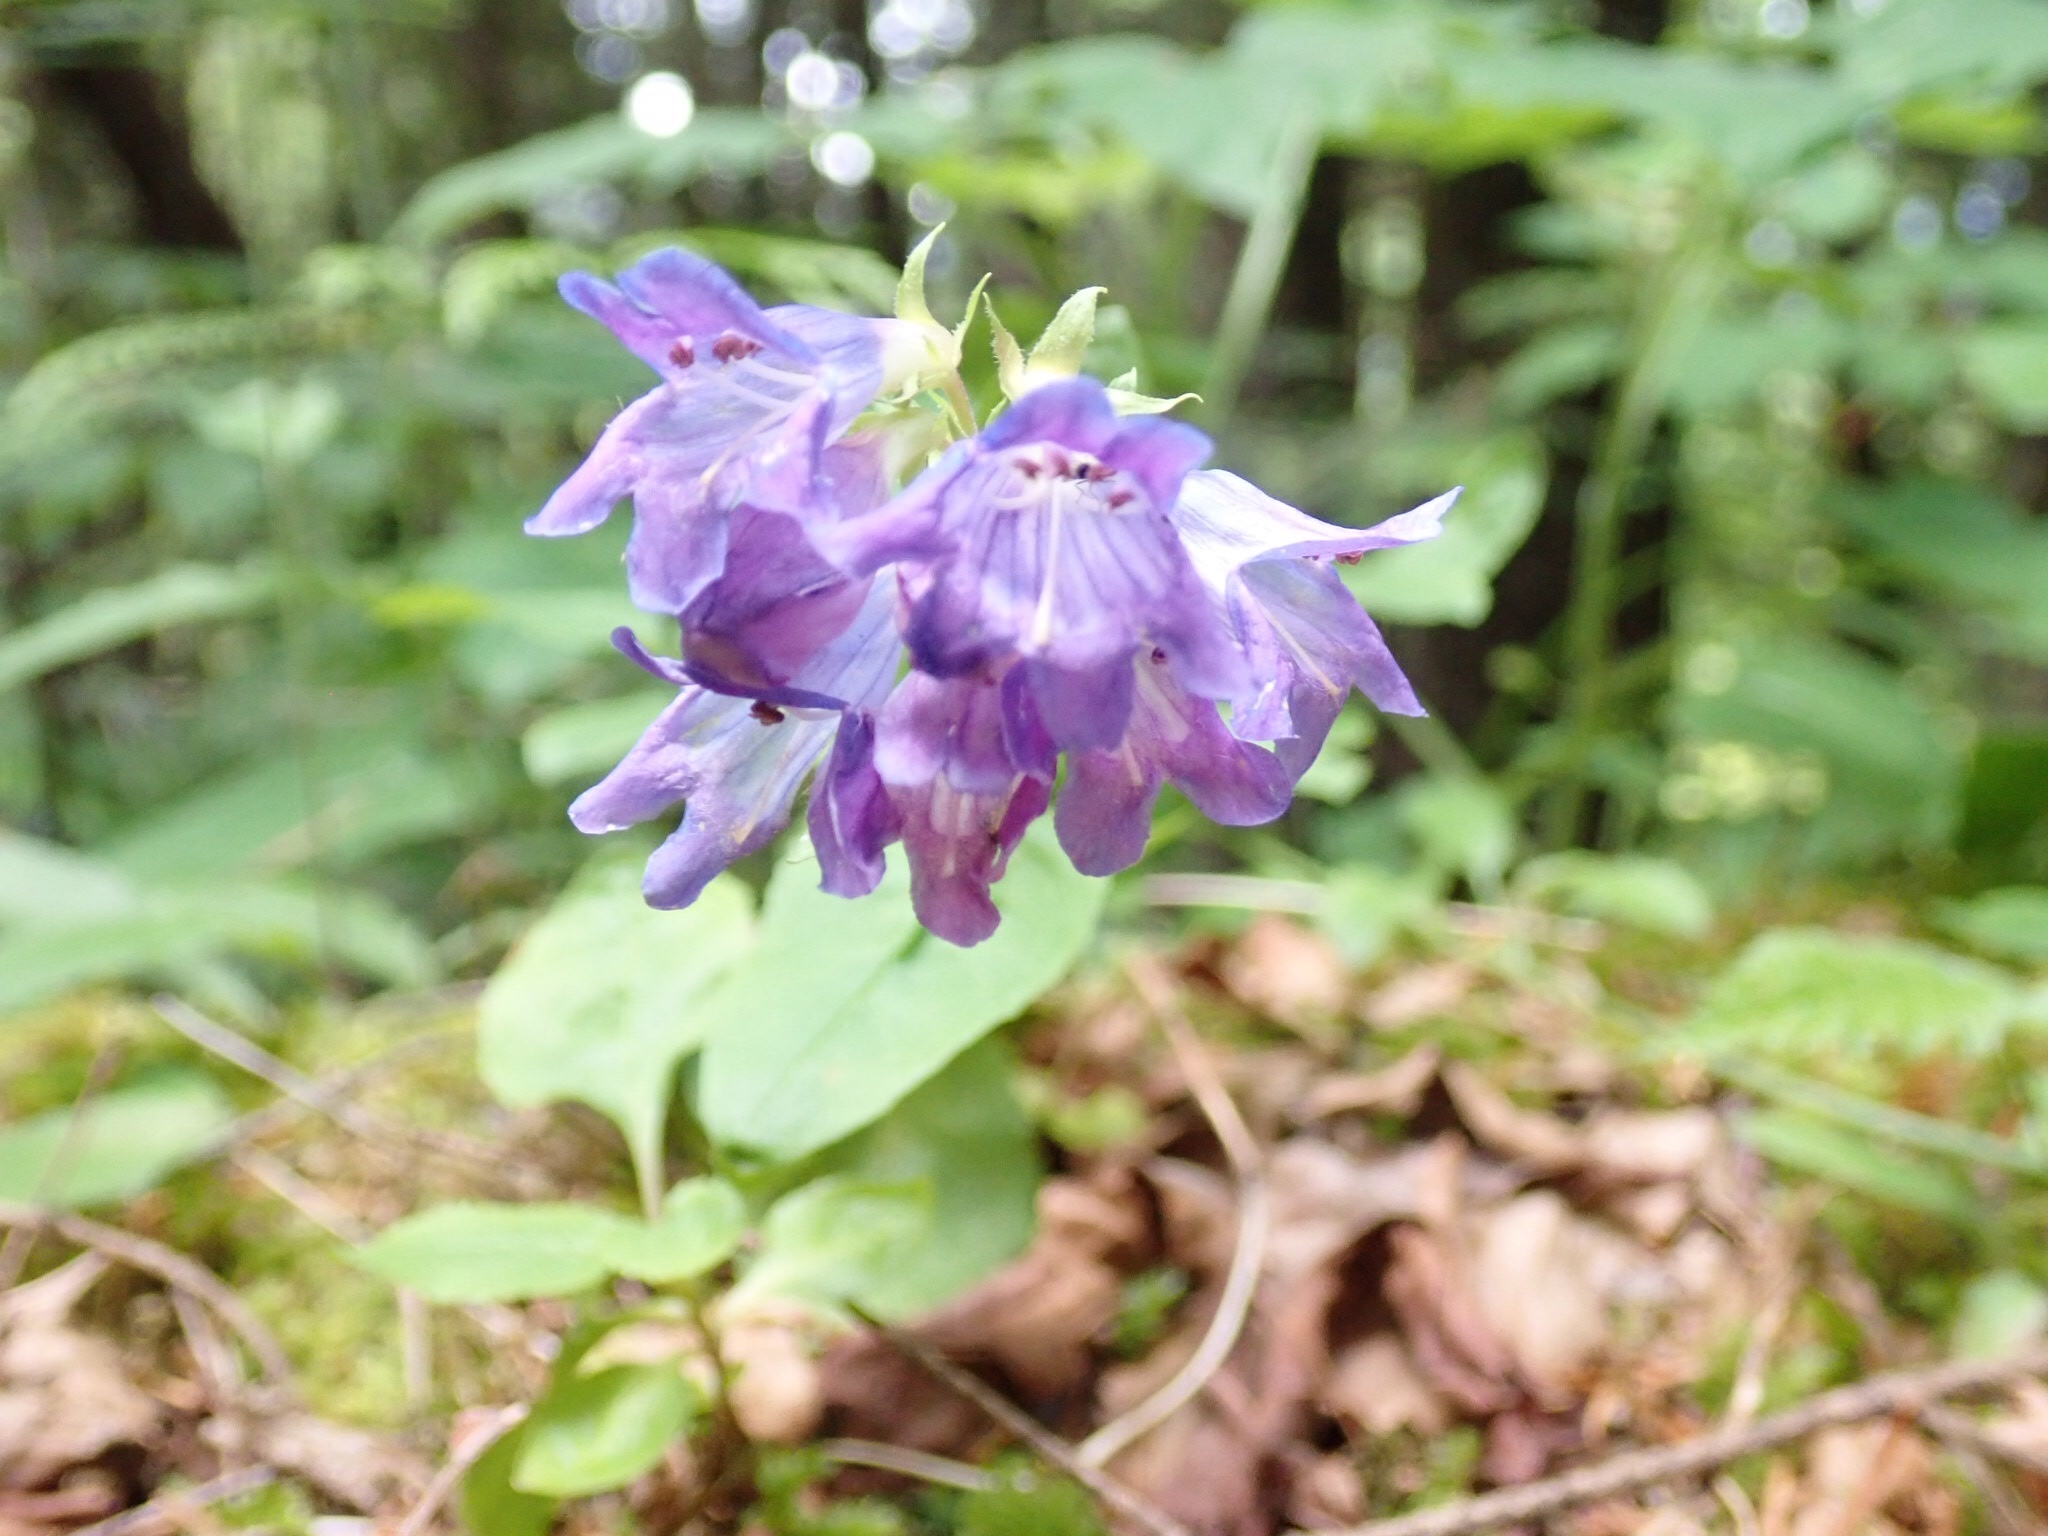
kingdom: Plantae
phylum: Tracheophyta
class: Magnoliopsida
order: Lamiales
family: Plantaginaceae
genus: Penstemon
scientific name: Penstemon serrulatus
